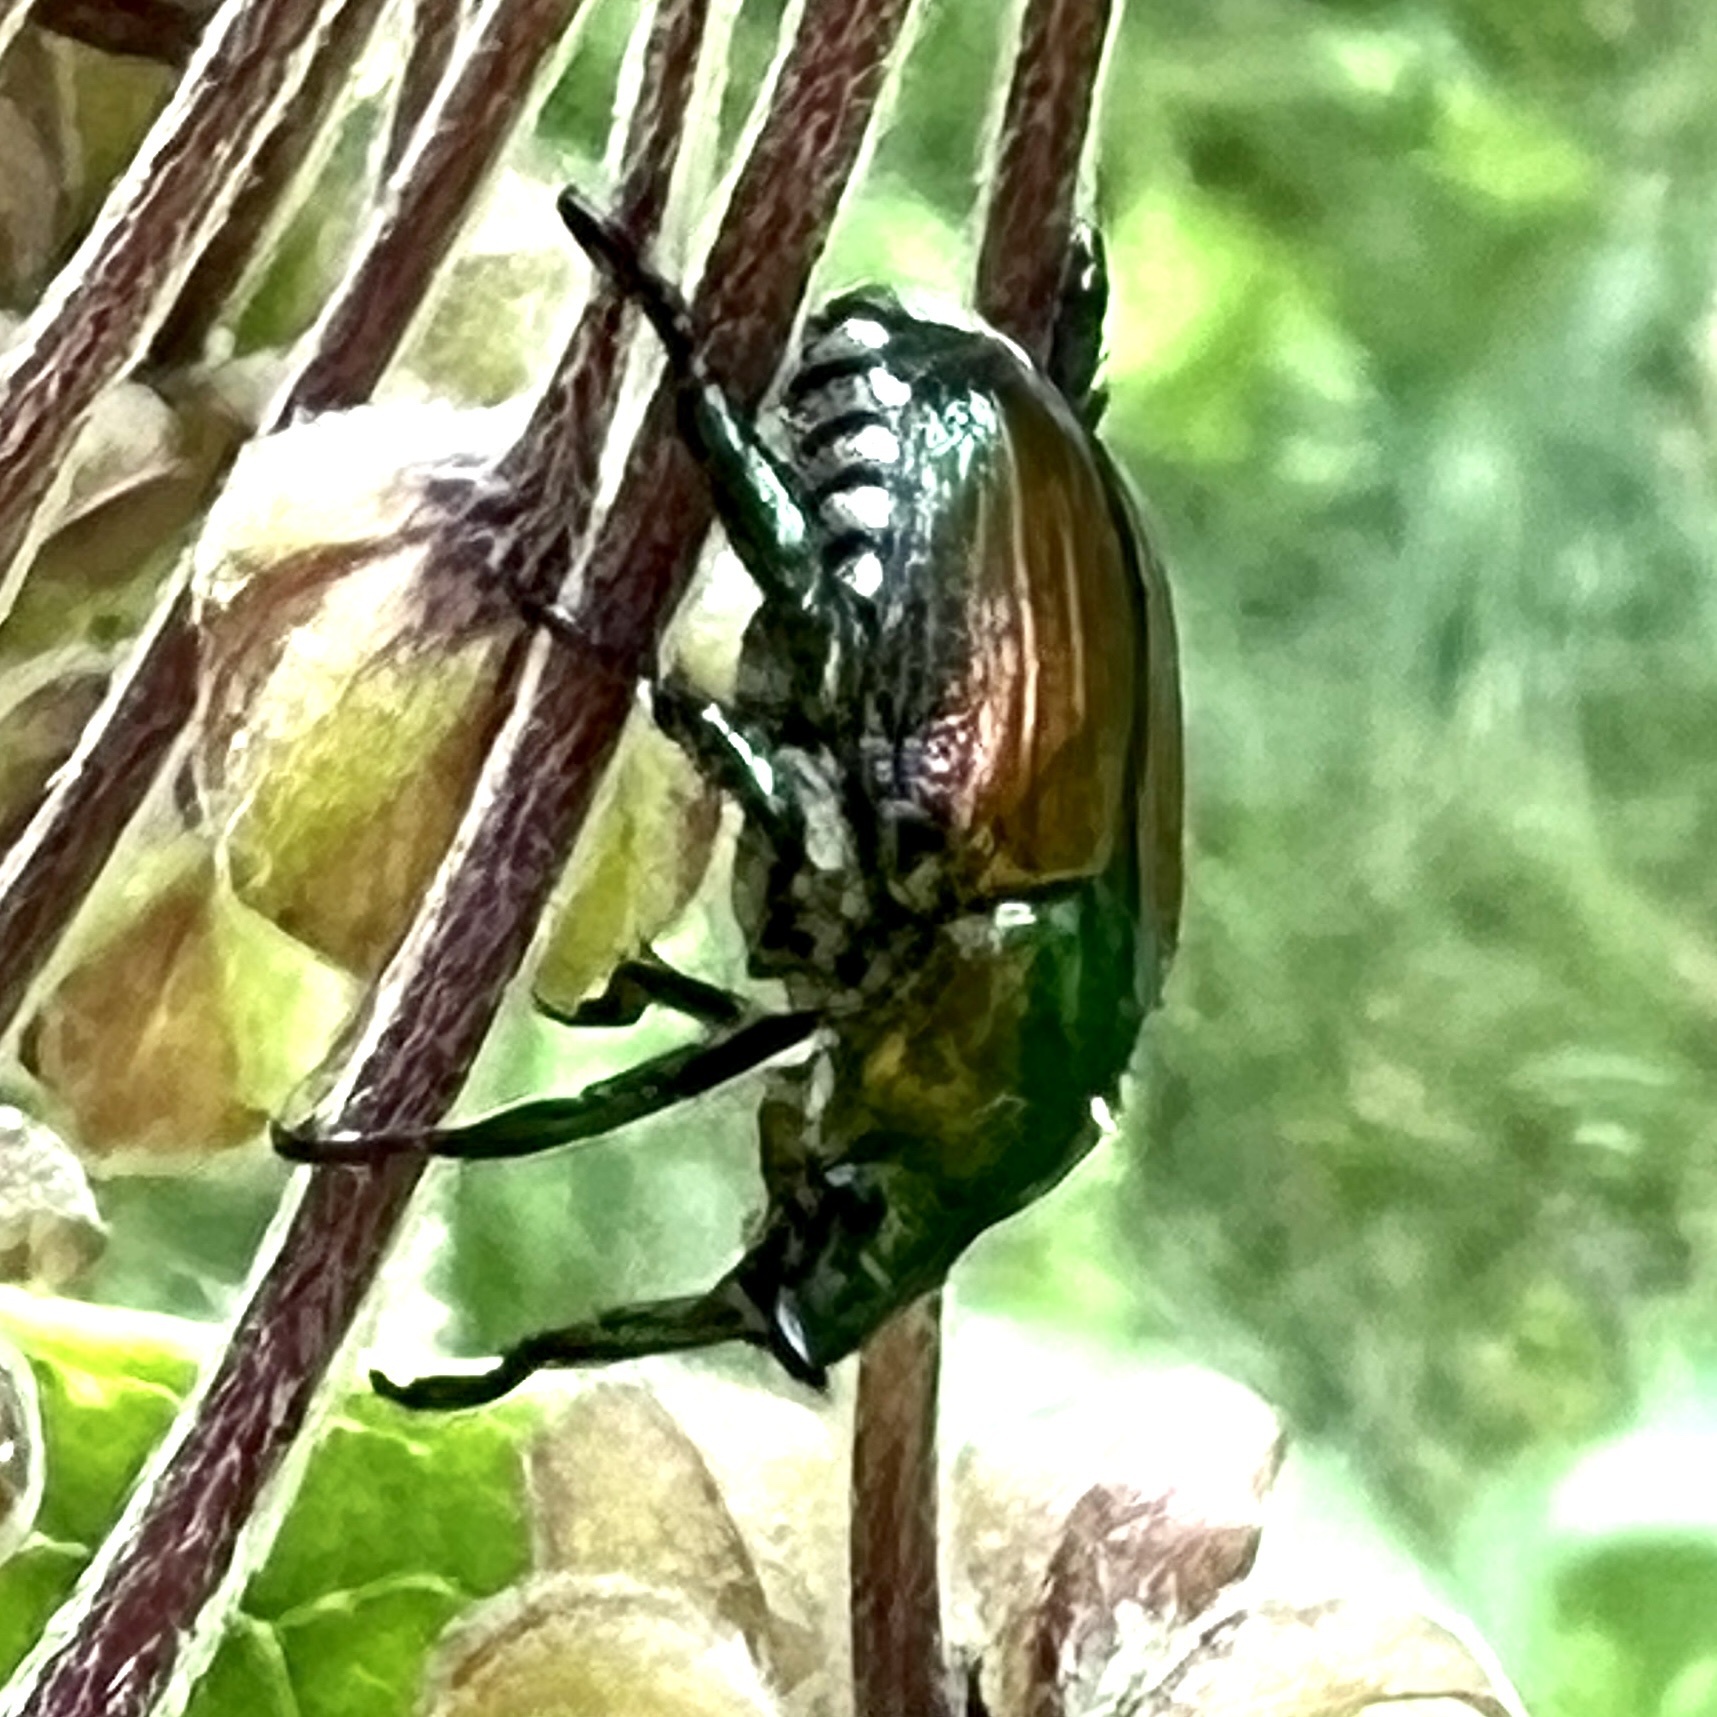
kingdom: Animalia
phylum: Arthropoda
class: Insecta
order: Coleoptera
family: Scarabaeidae
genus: Popillia
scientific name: Popillia japonica
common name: Japanese beetle
